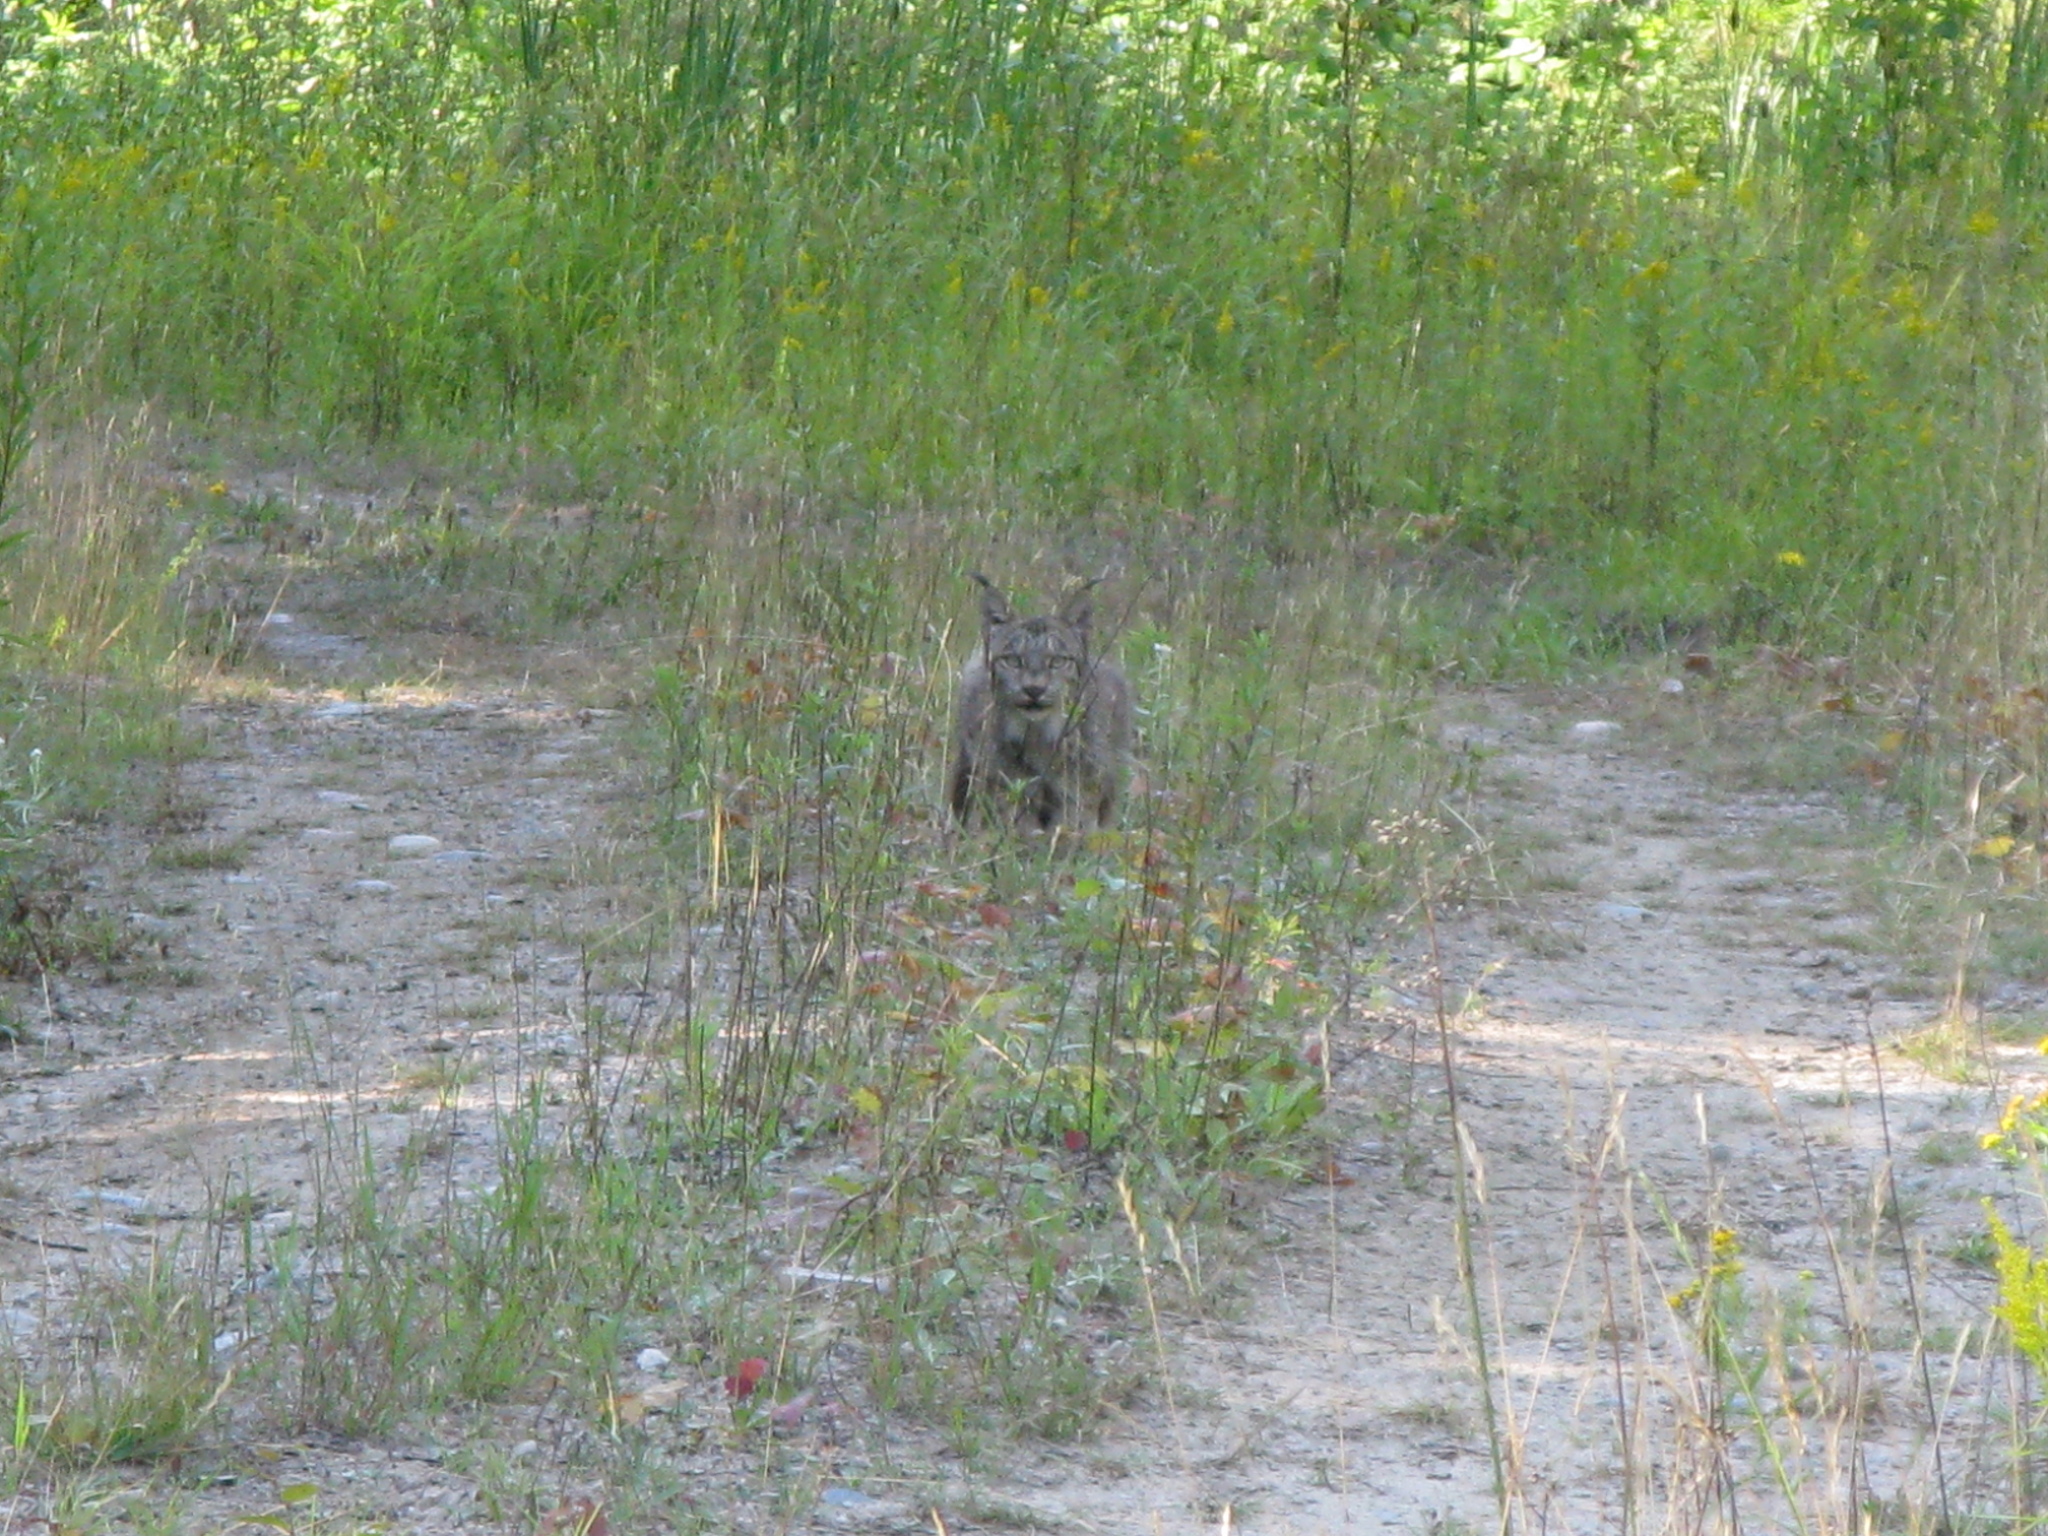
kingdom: Animalia
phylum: Chordata
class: Mammalia
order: Carnivora
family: Felidae
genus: Lynx
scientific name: Lynx canadensis
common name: Canadian lynx
